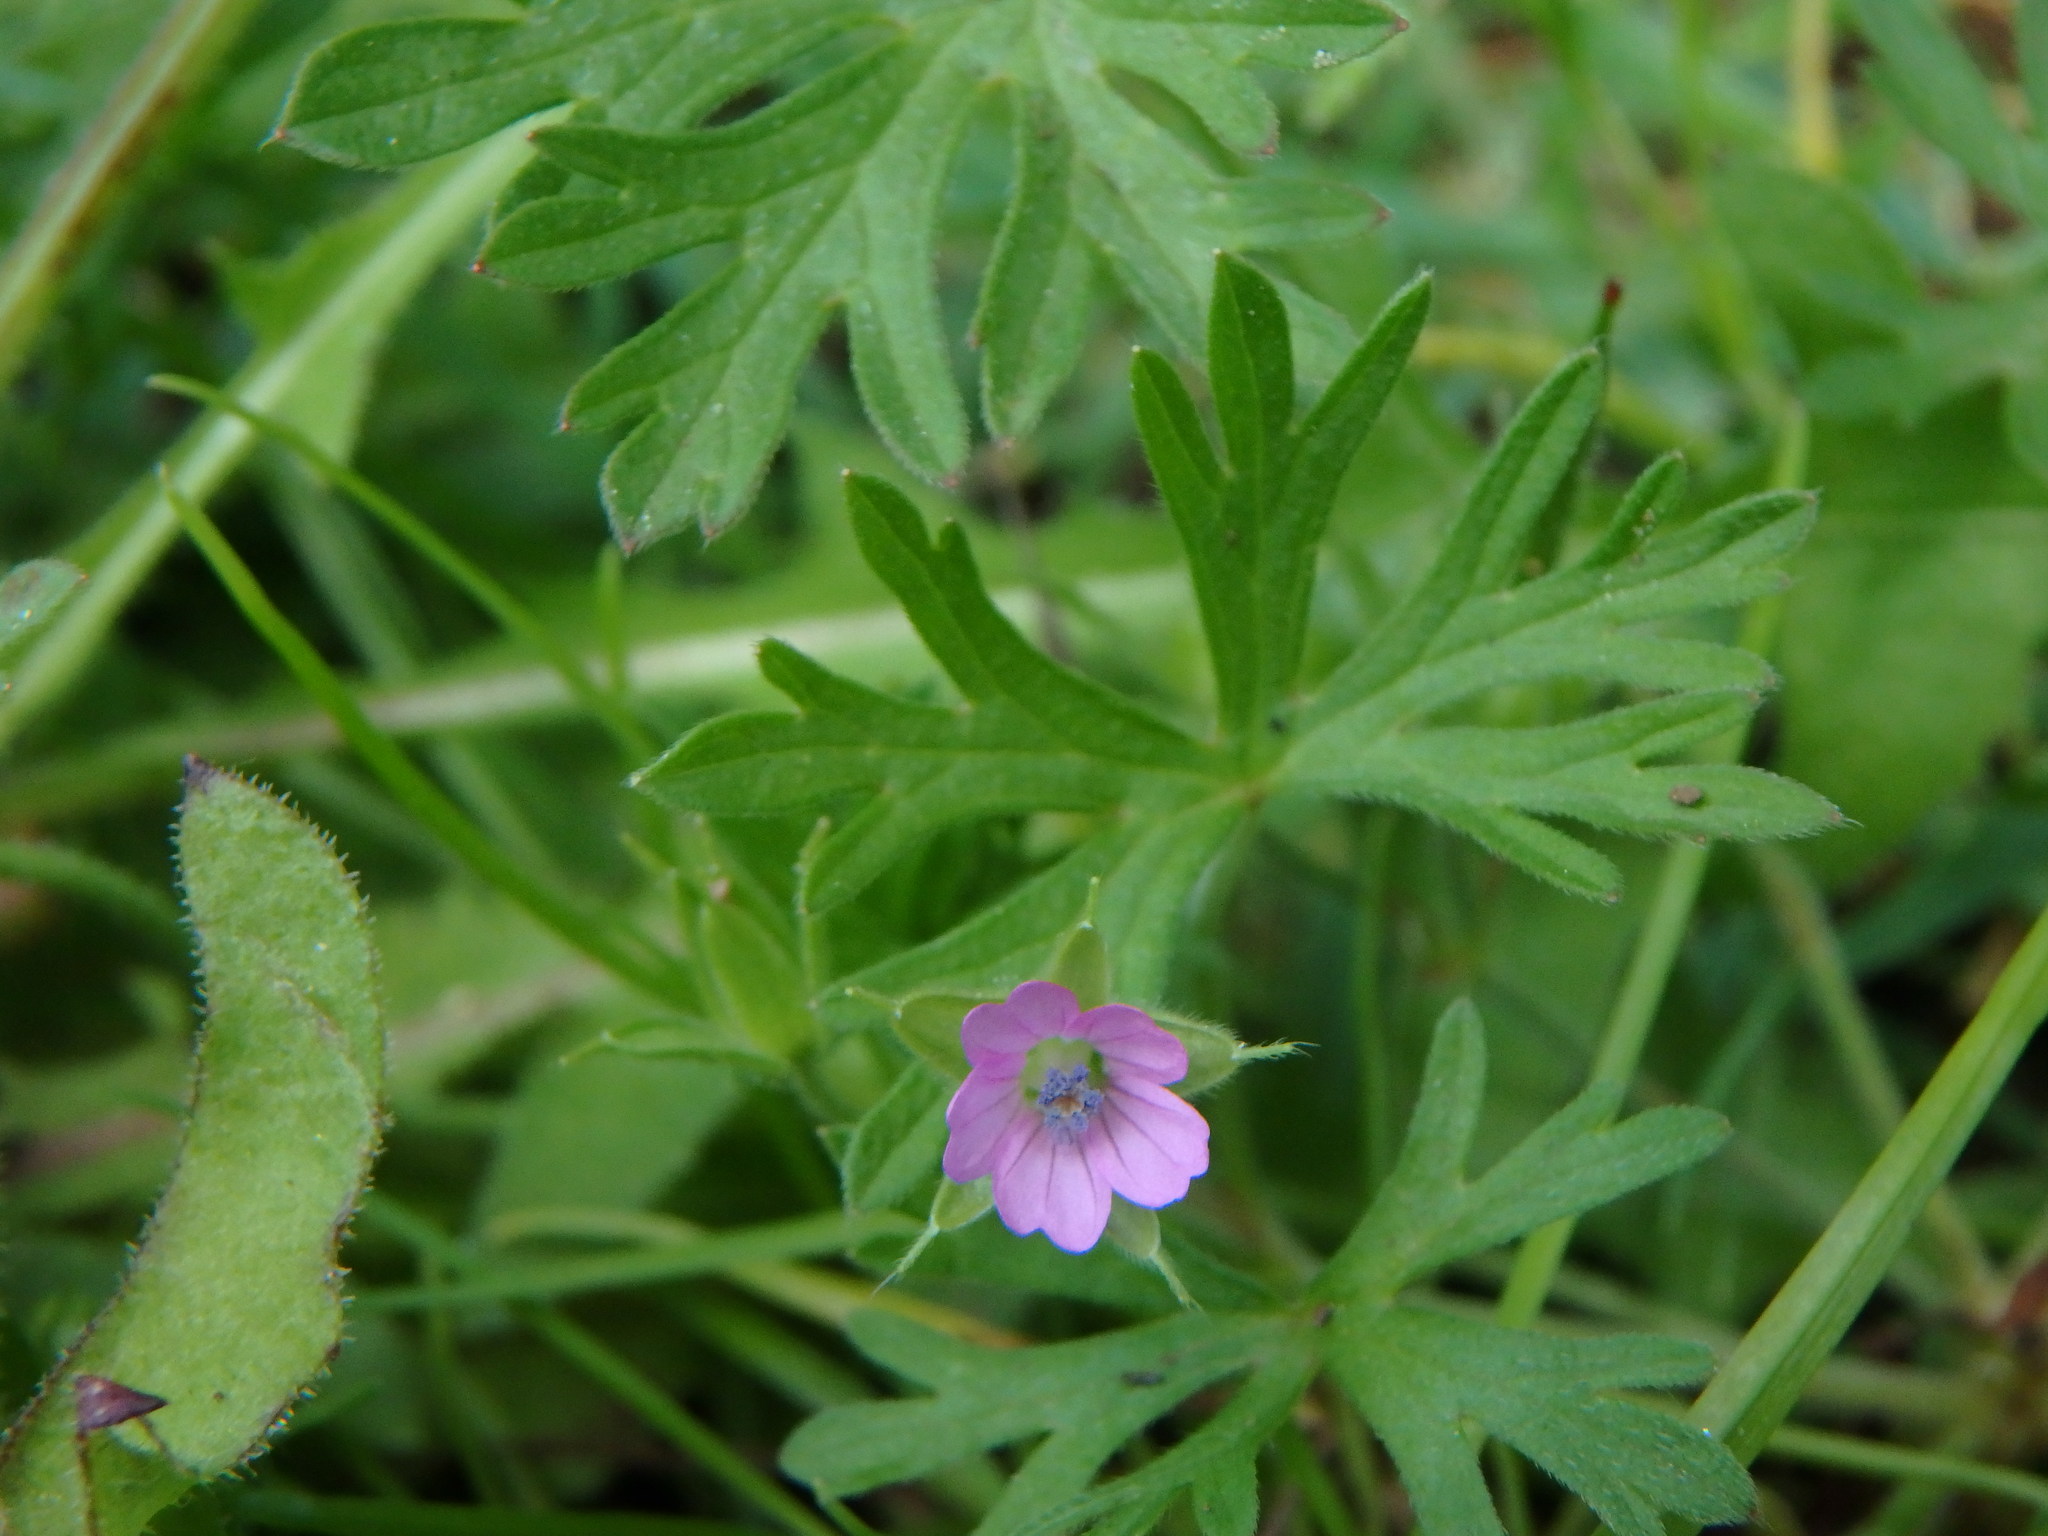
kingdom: Plantae
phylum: Tracheophyta
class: Magnoliopsida
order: Geraniales
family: Geraniaceae
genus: Geranium
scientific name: Geranium dissectum
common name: Cut-leaved crane's-bill
